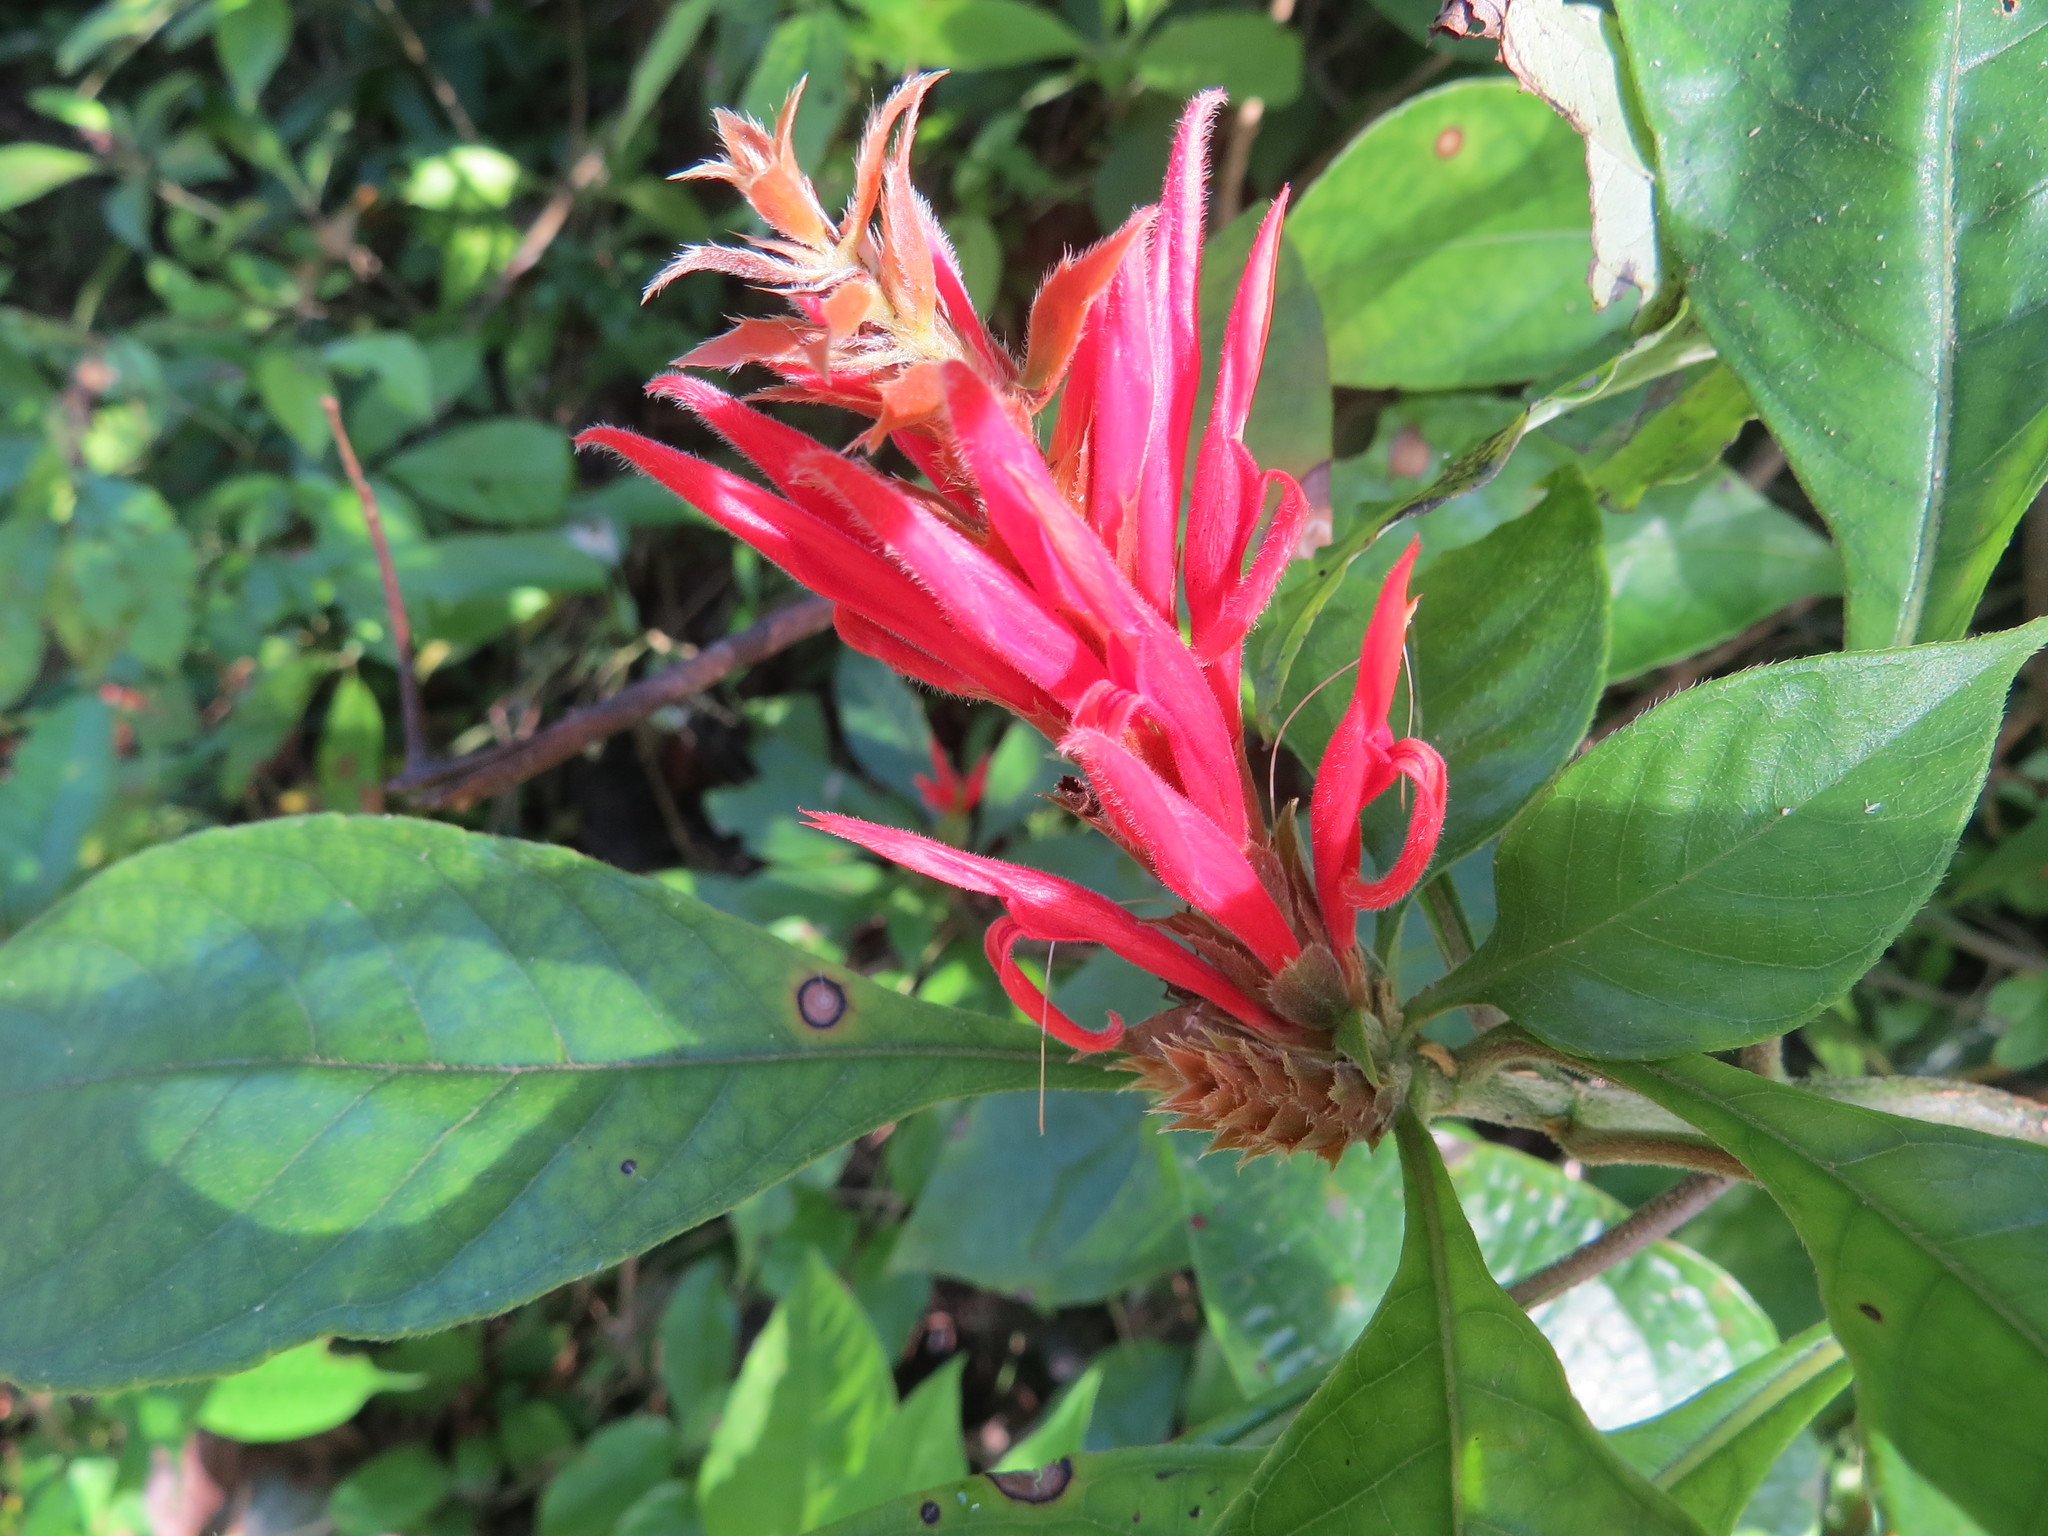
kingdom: Plantae
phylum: Tracheophyta
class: Magnoliopsida
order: Lamiales
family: Acanthaceae
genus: Aphelandra
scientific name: Aphelandra scabra
